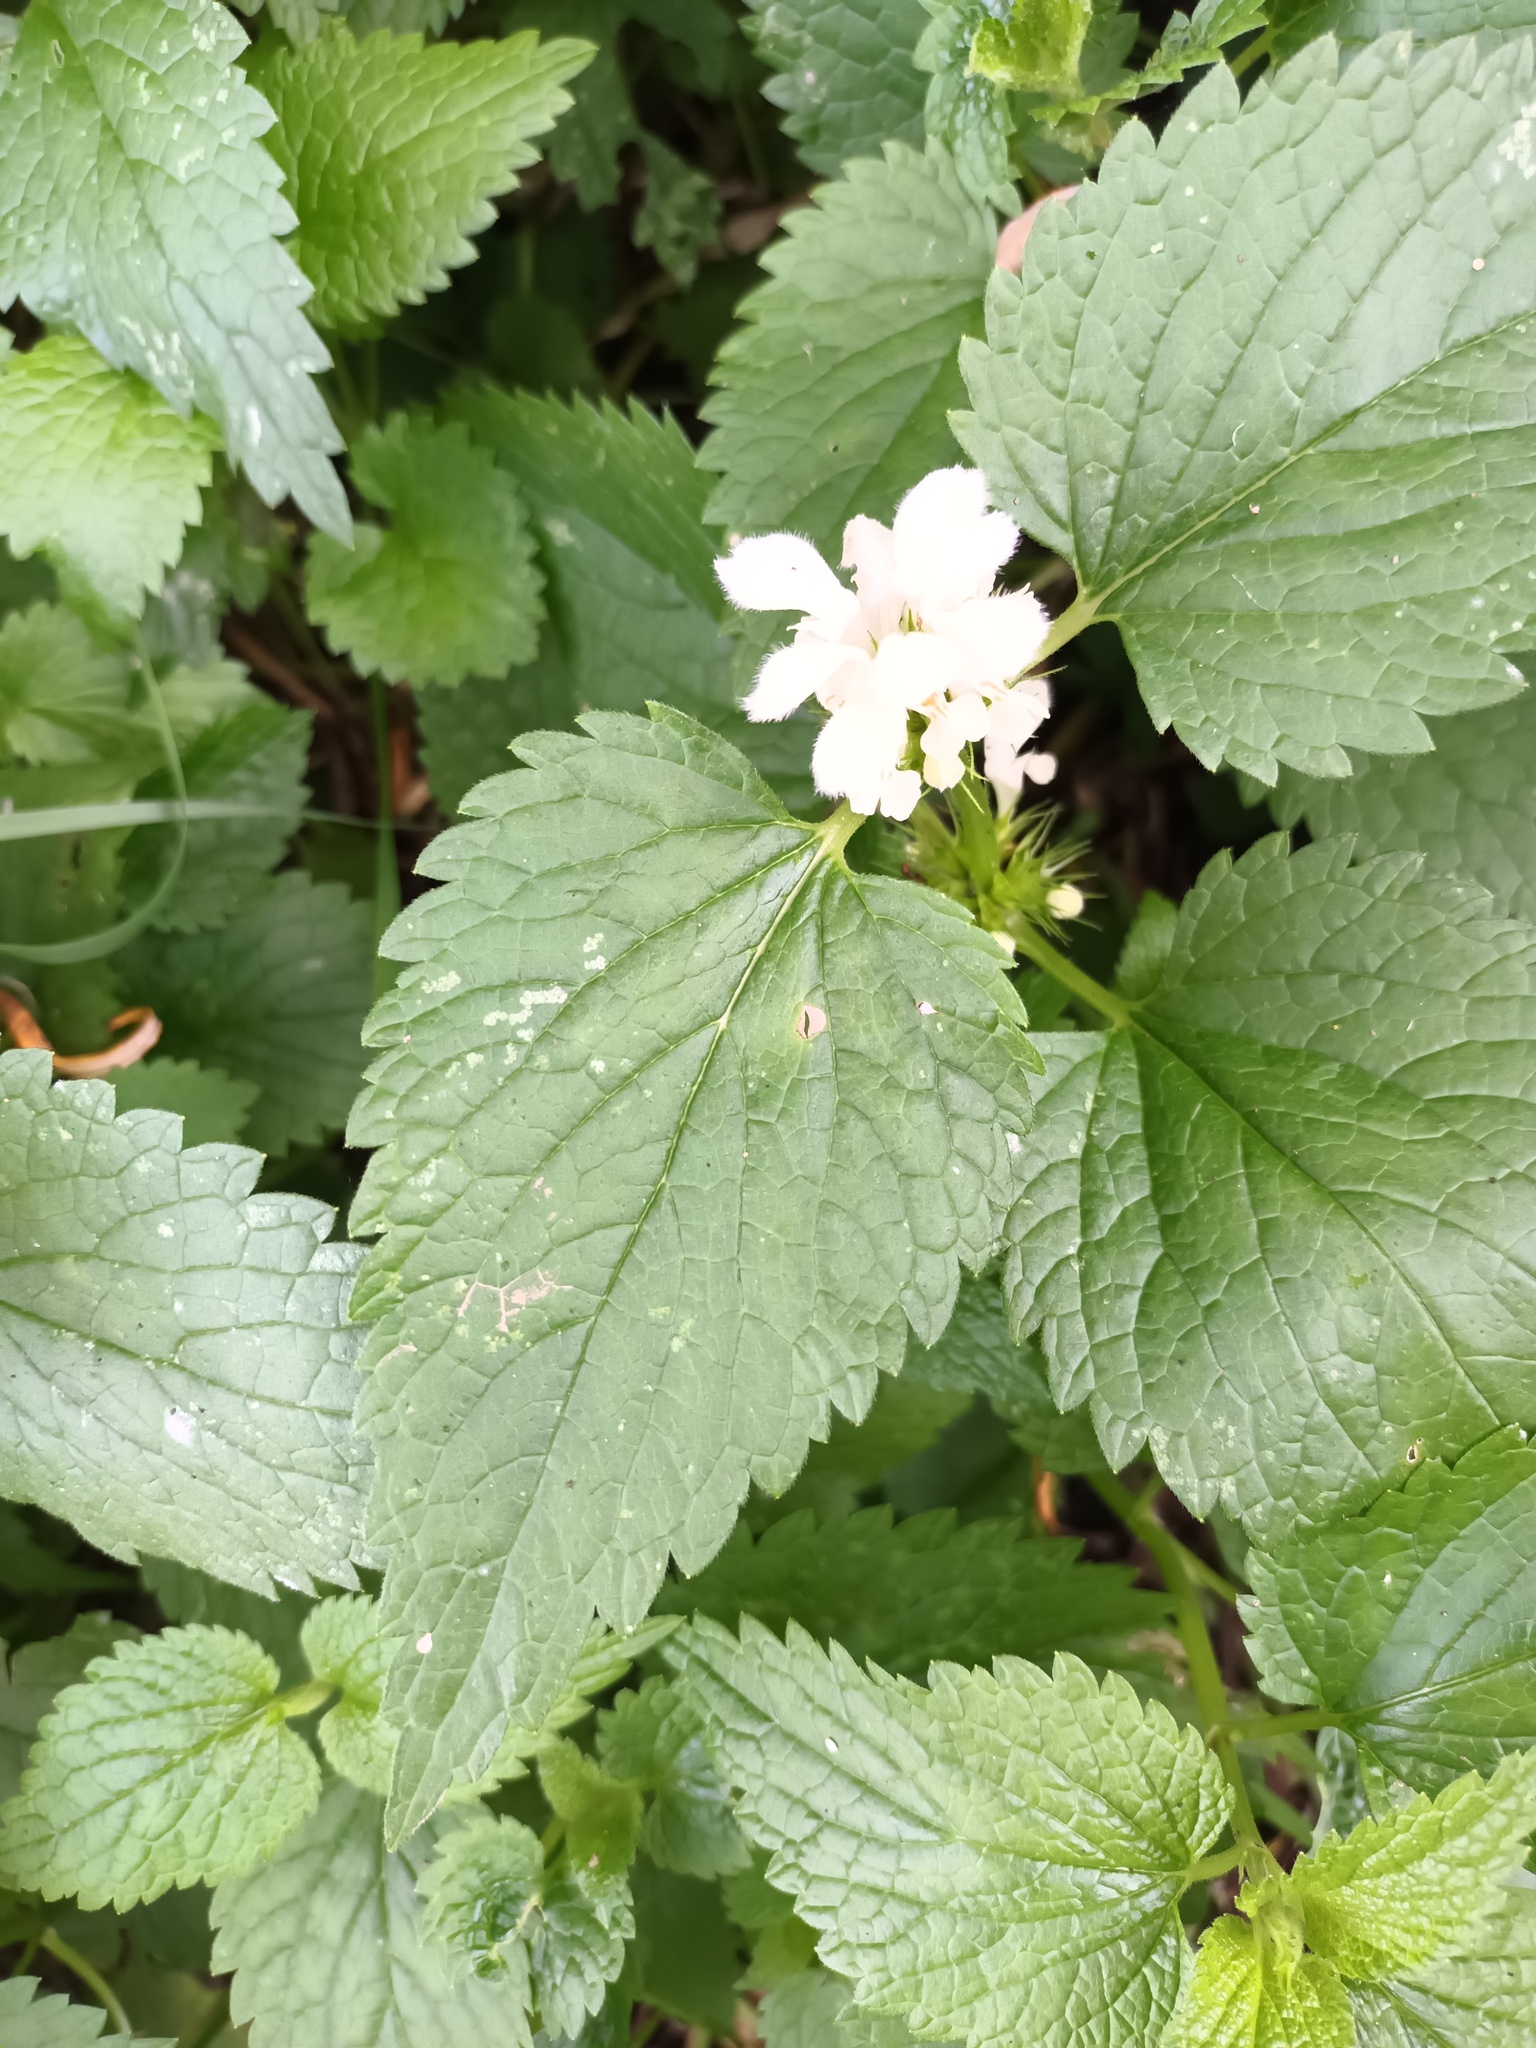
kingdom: Plantae
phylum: Tracheophyta
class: Magnoliopsida
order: Lamiales
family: Lamiaceae
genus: Lamium
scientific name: Lamium album
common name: White dead-nettle
